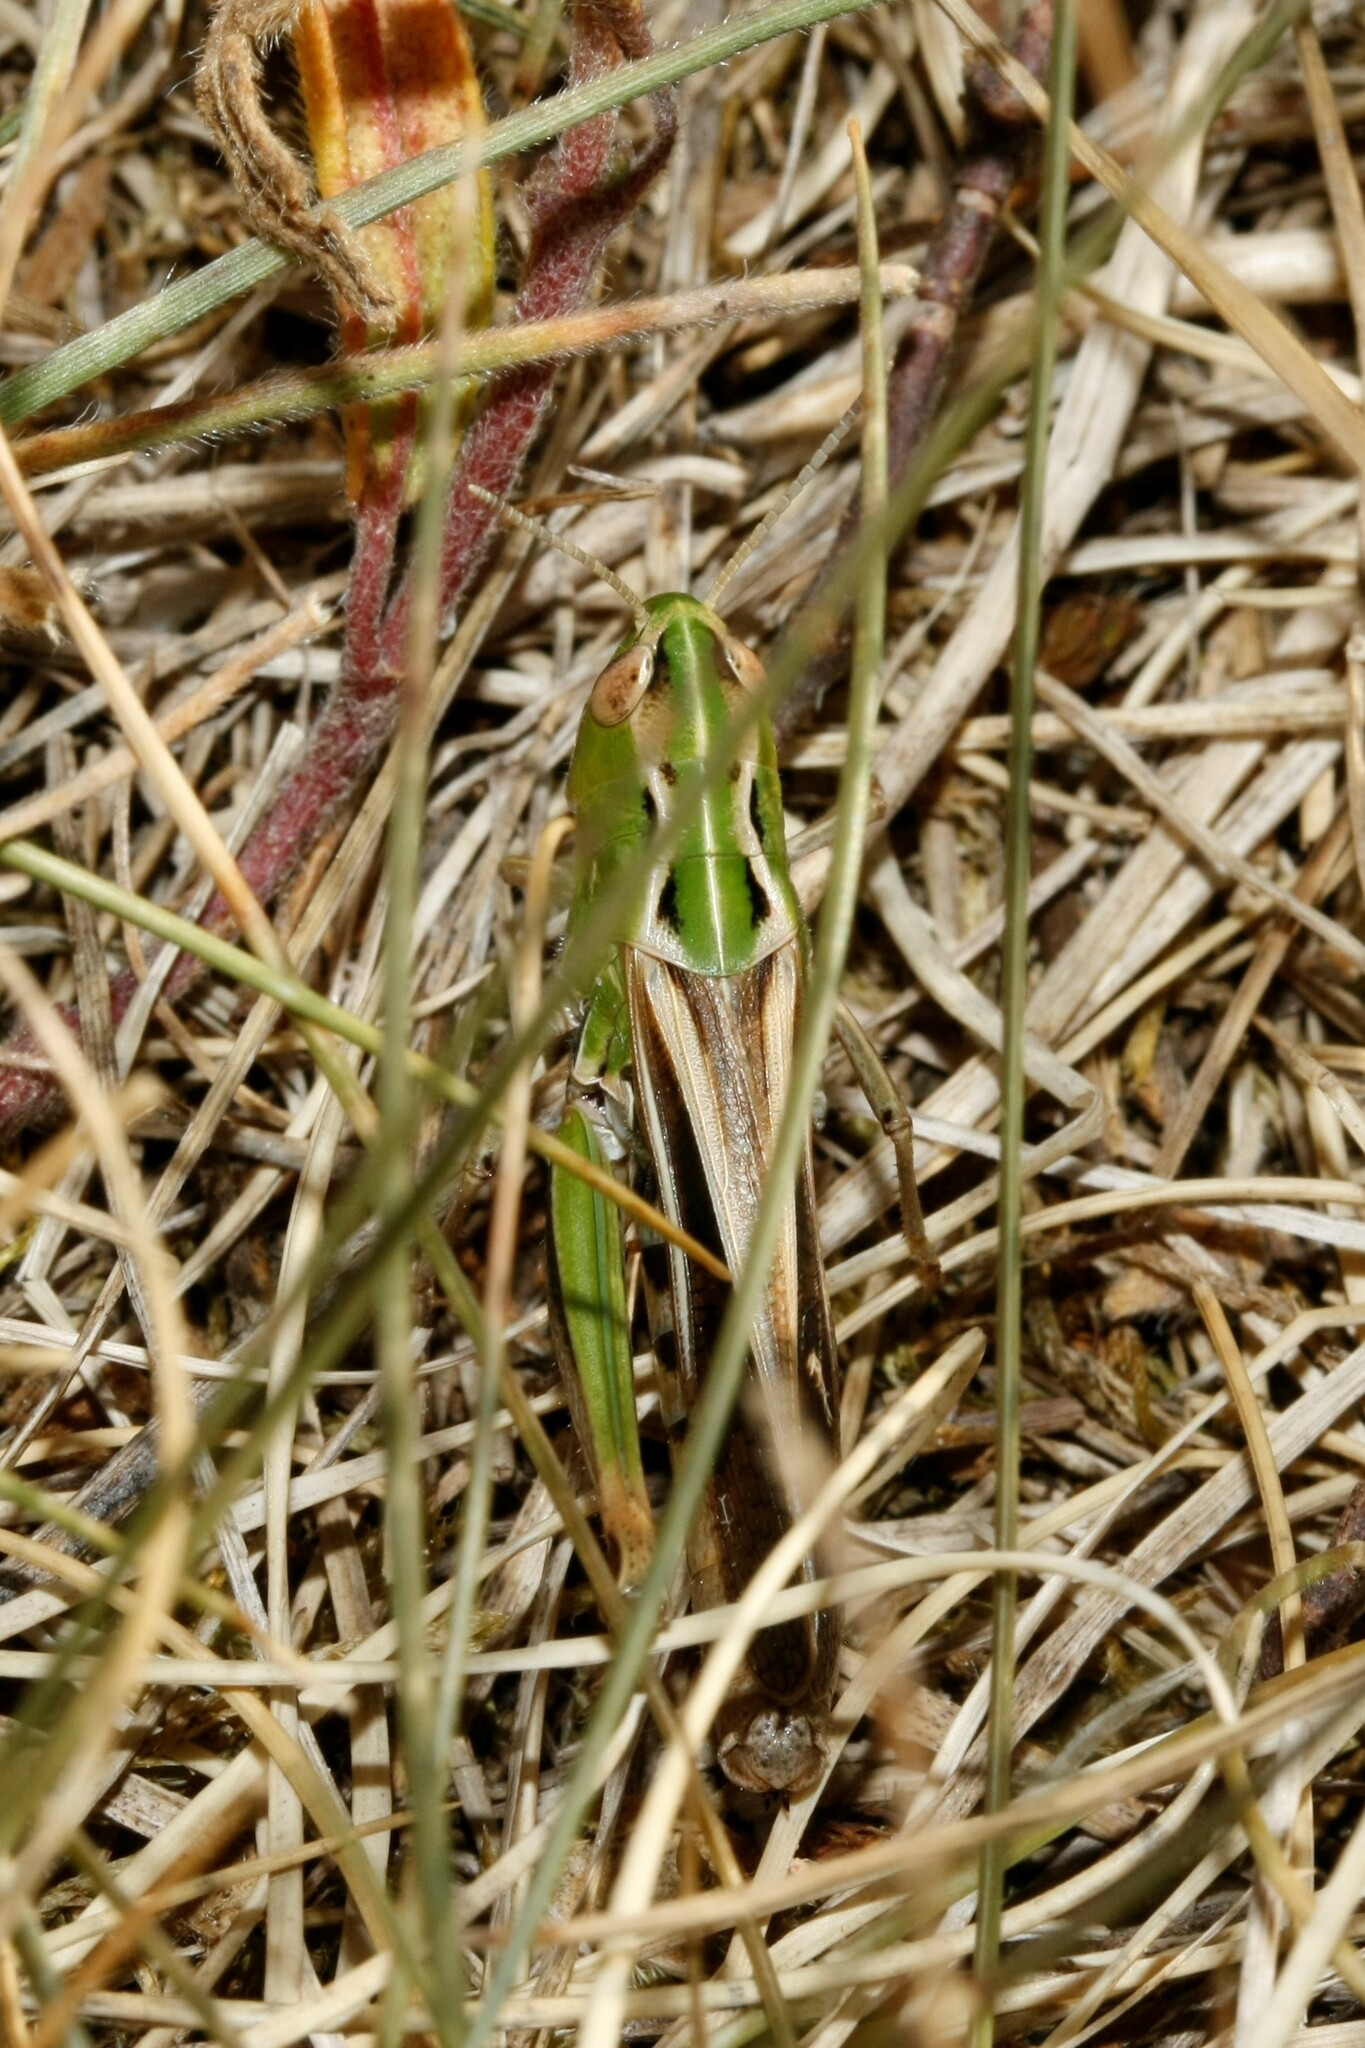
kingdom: Animalia
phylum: Arthropoda
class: Insecta
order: Orthoptera
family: Acrididae
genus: Stenobothrus
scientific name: Stenobothrus lineatus
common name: Stripe-winged grasshopper
